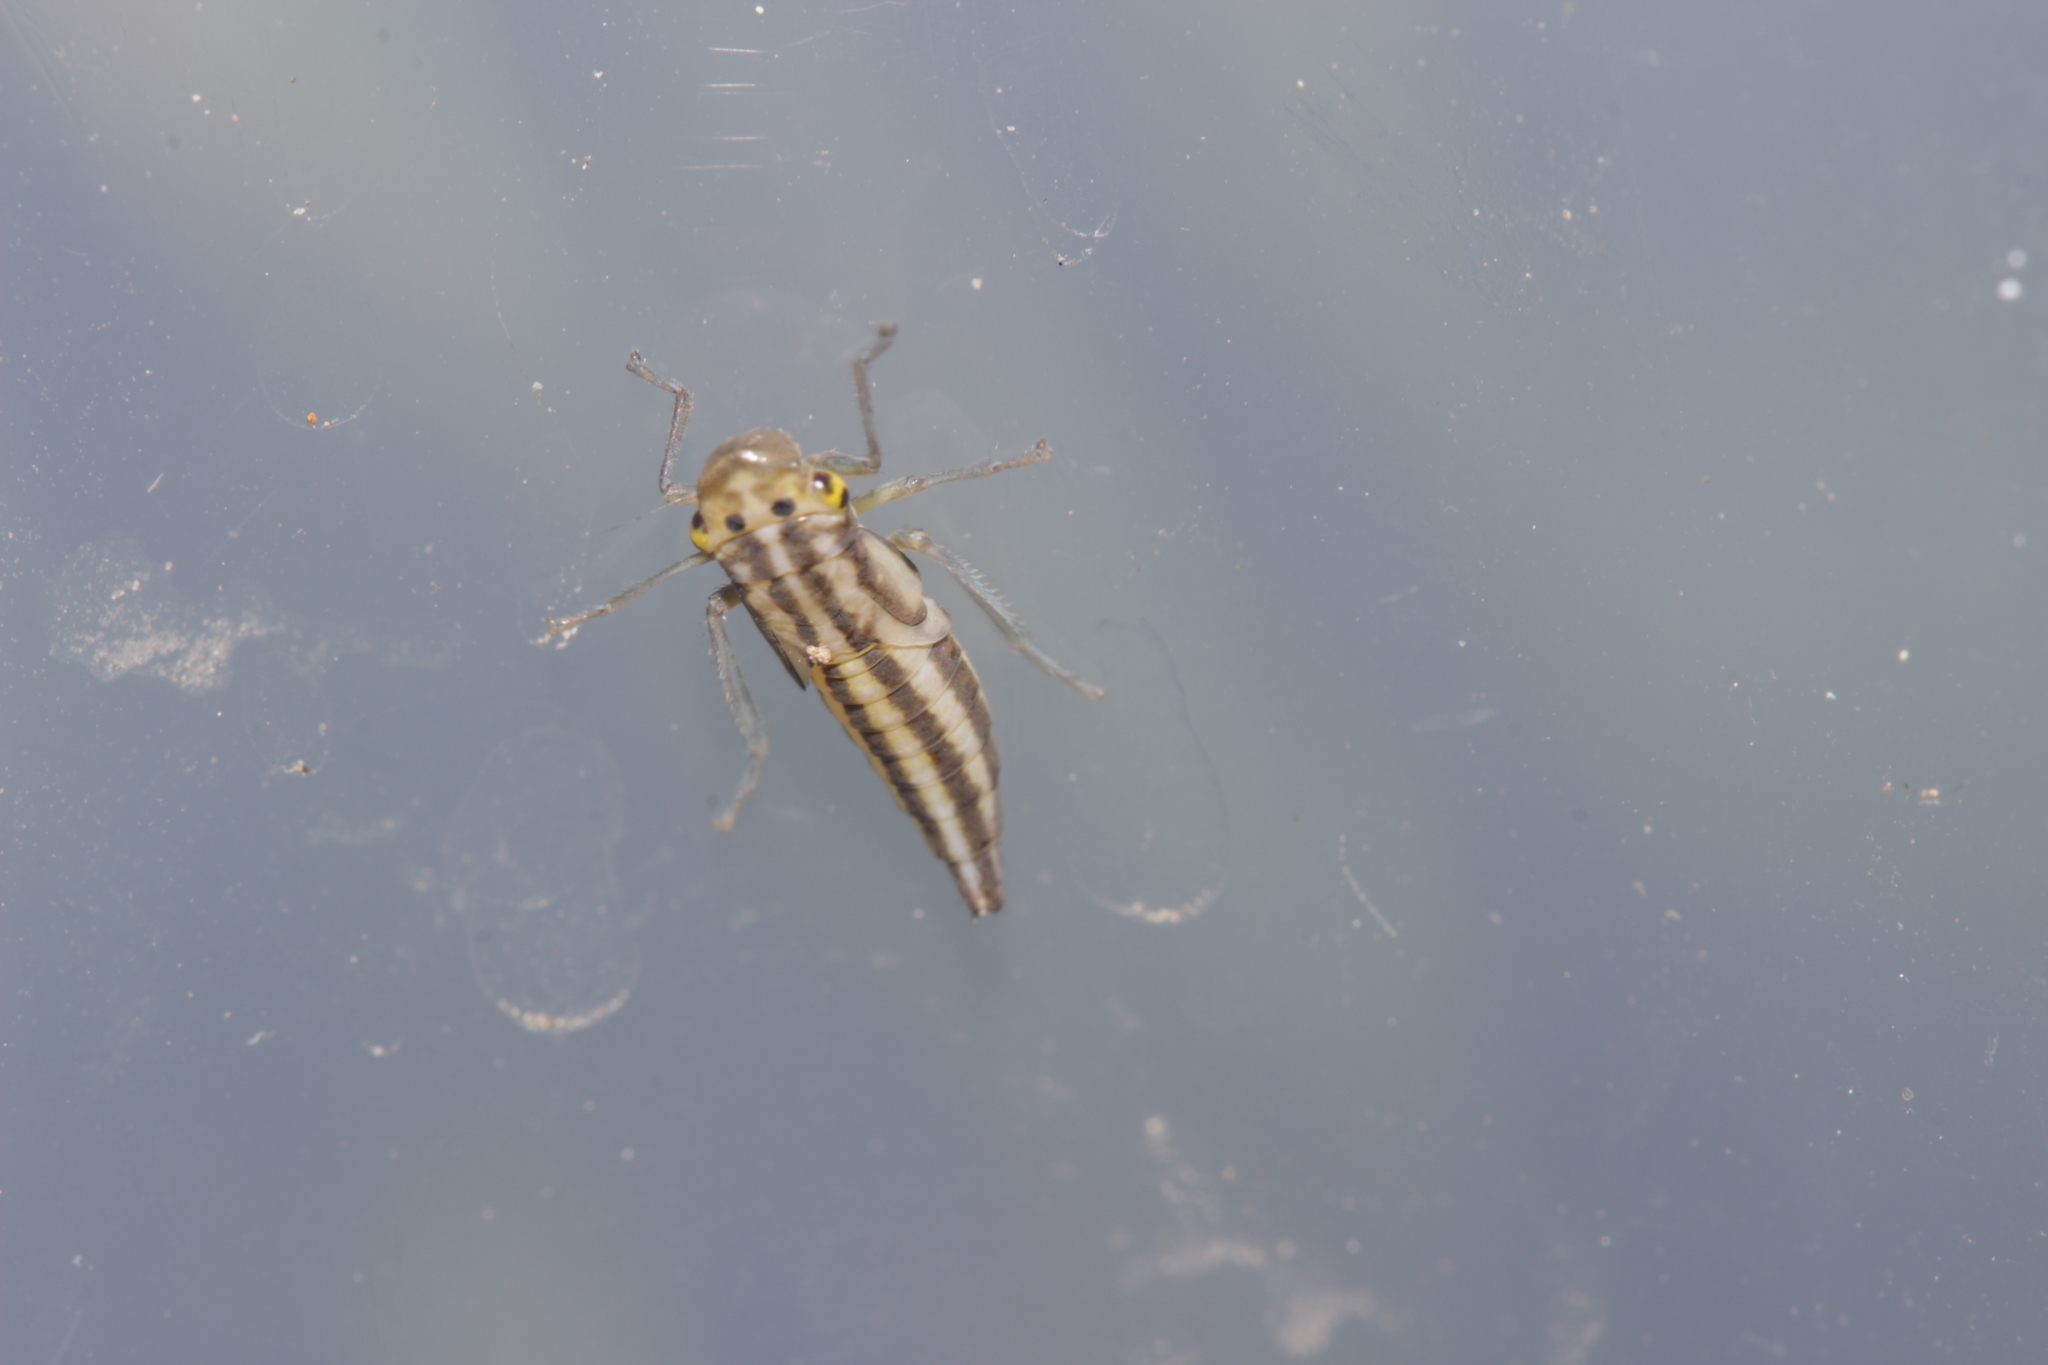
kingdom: Animalia
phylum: Arthropoda
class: Insecta
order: Hemiptera
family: Cicadellidae
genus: Cicadella
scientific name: Cicadella viridis
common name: Leafhopper
